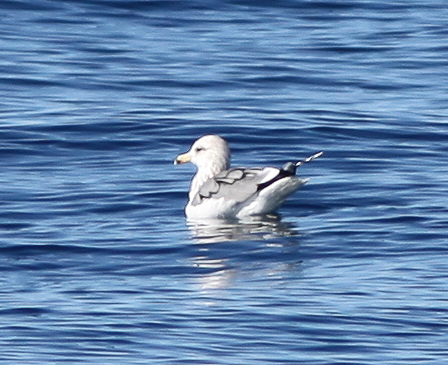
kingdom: Animalia
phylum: Chordata
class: Aves
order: Charadriiformes
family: Laridae
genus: Larus
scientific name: Larus californicus
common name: California gull
